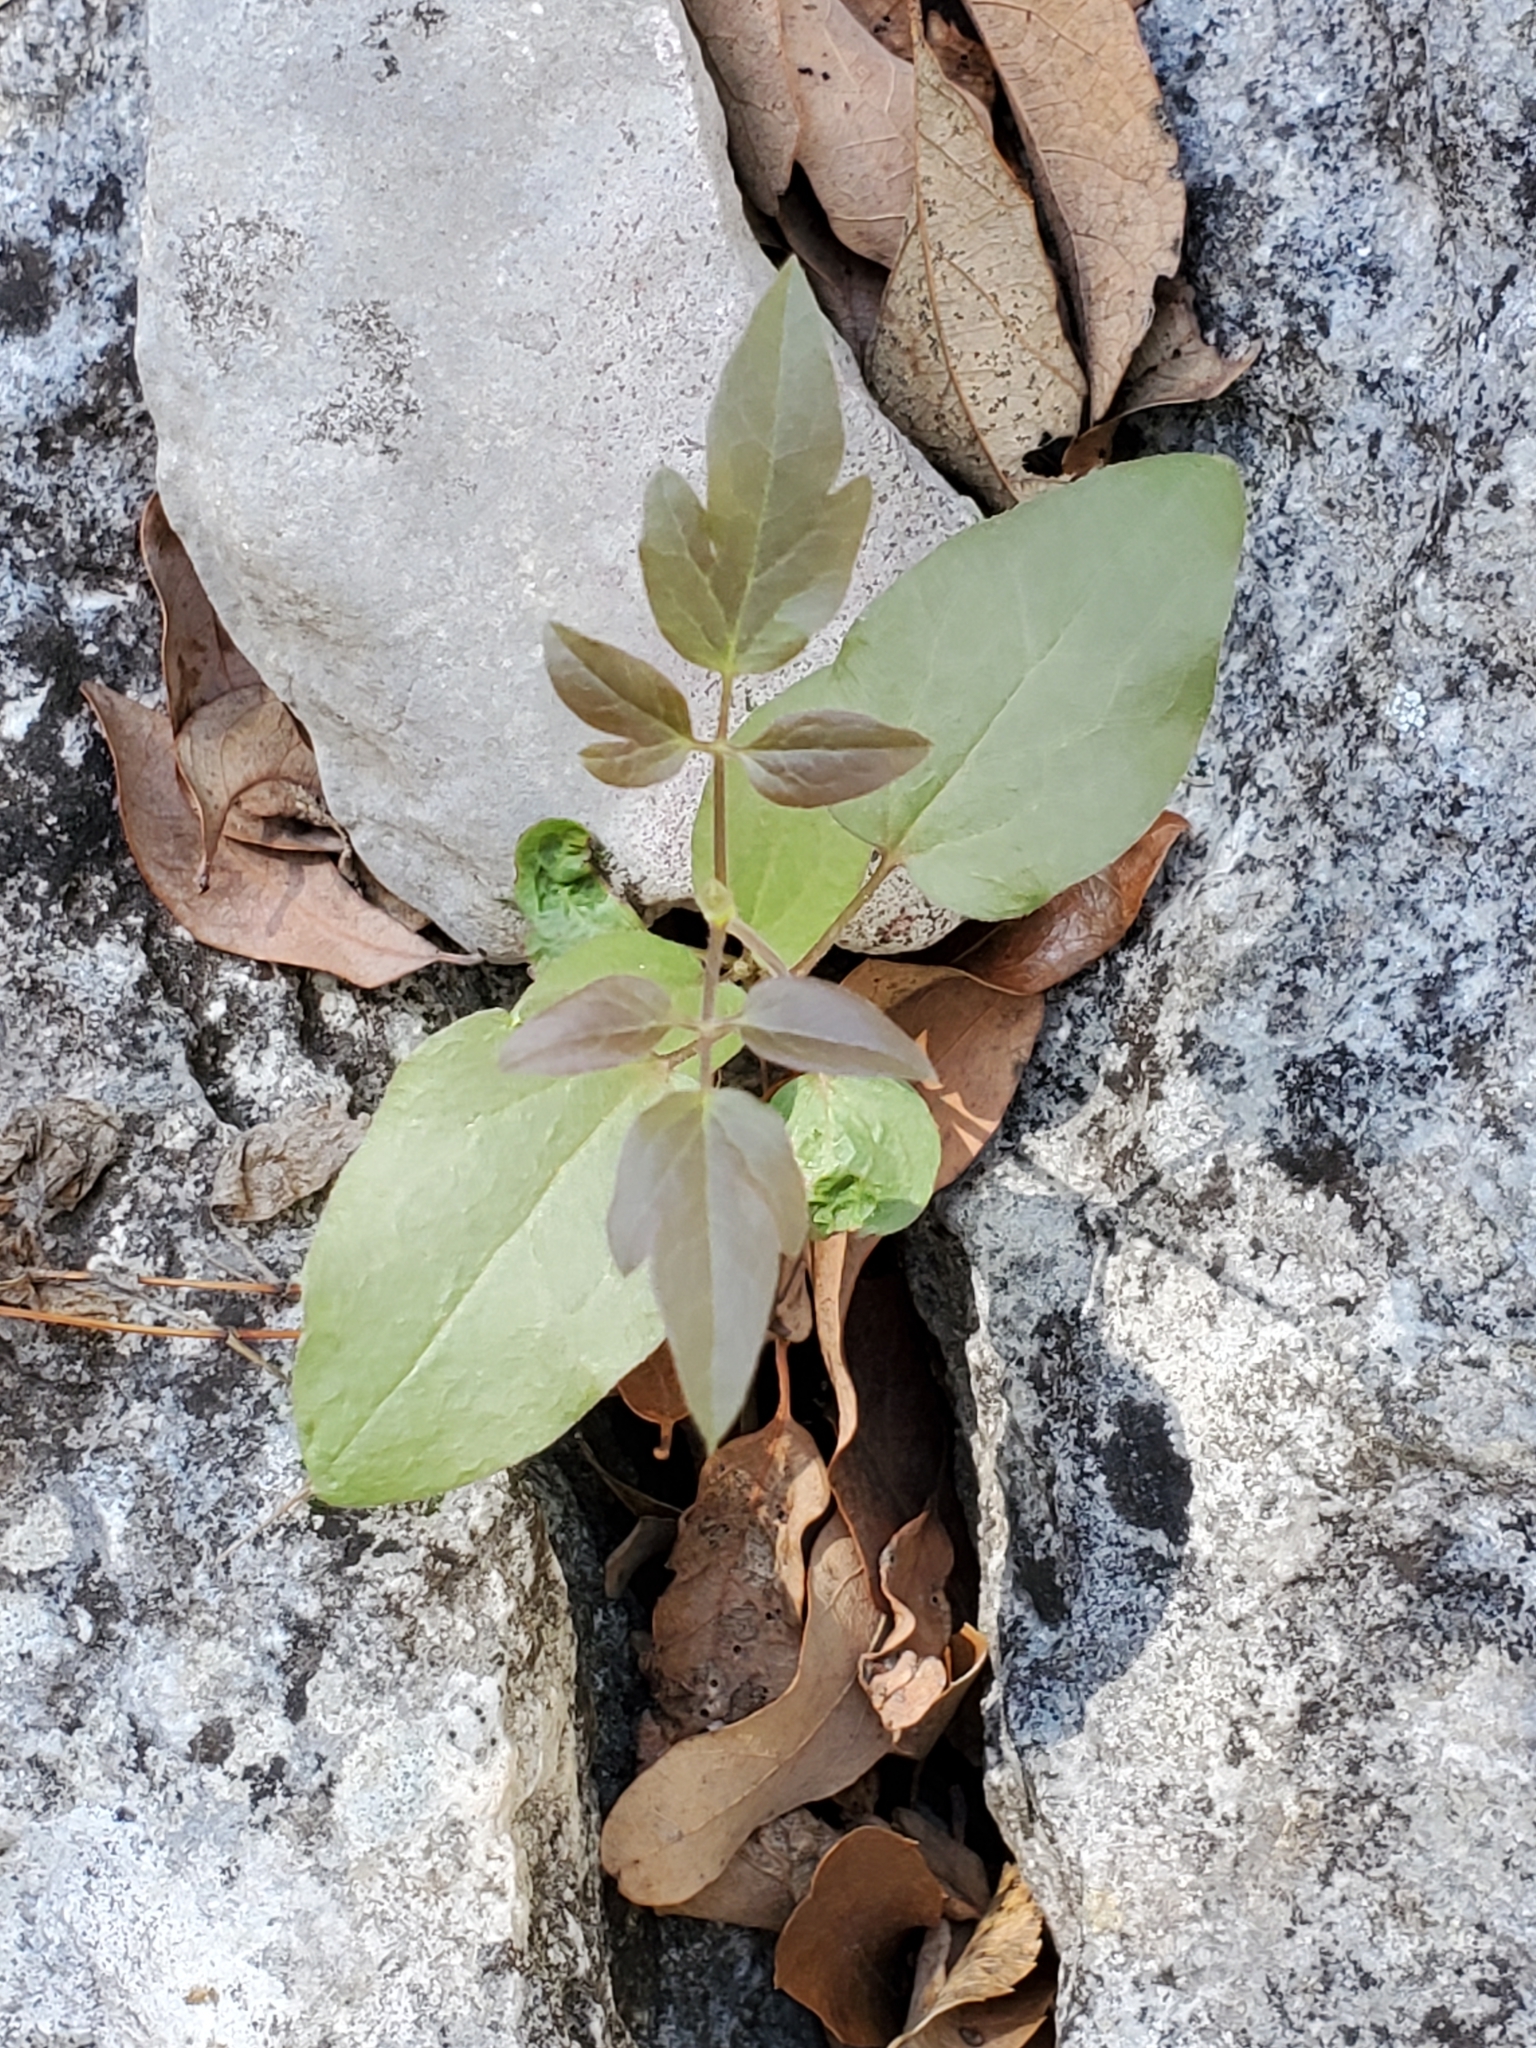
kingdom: Plantae
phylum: Tracheophyta
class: Magnoliopsida
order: Ranunculales
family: Ranunculaceae
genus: Clematis
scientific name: Clematis pitcheri
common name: Bellflower clematis
